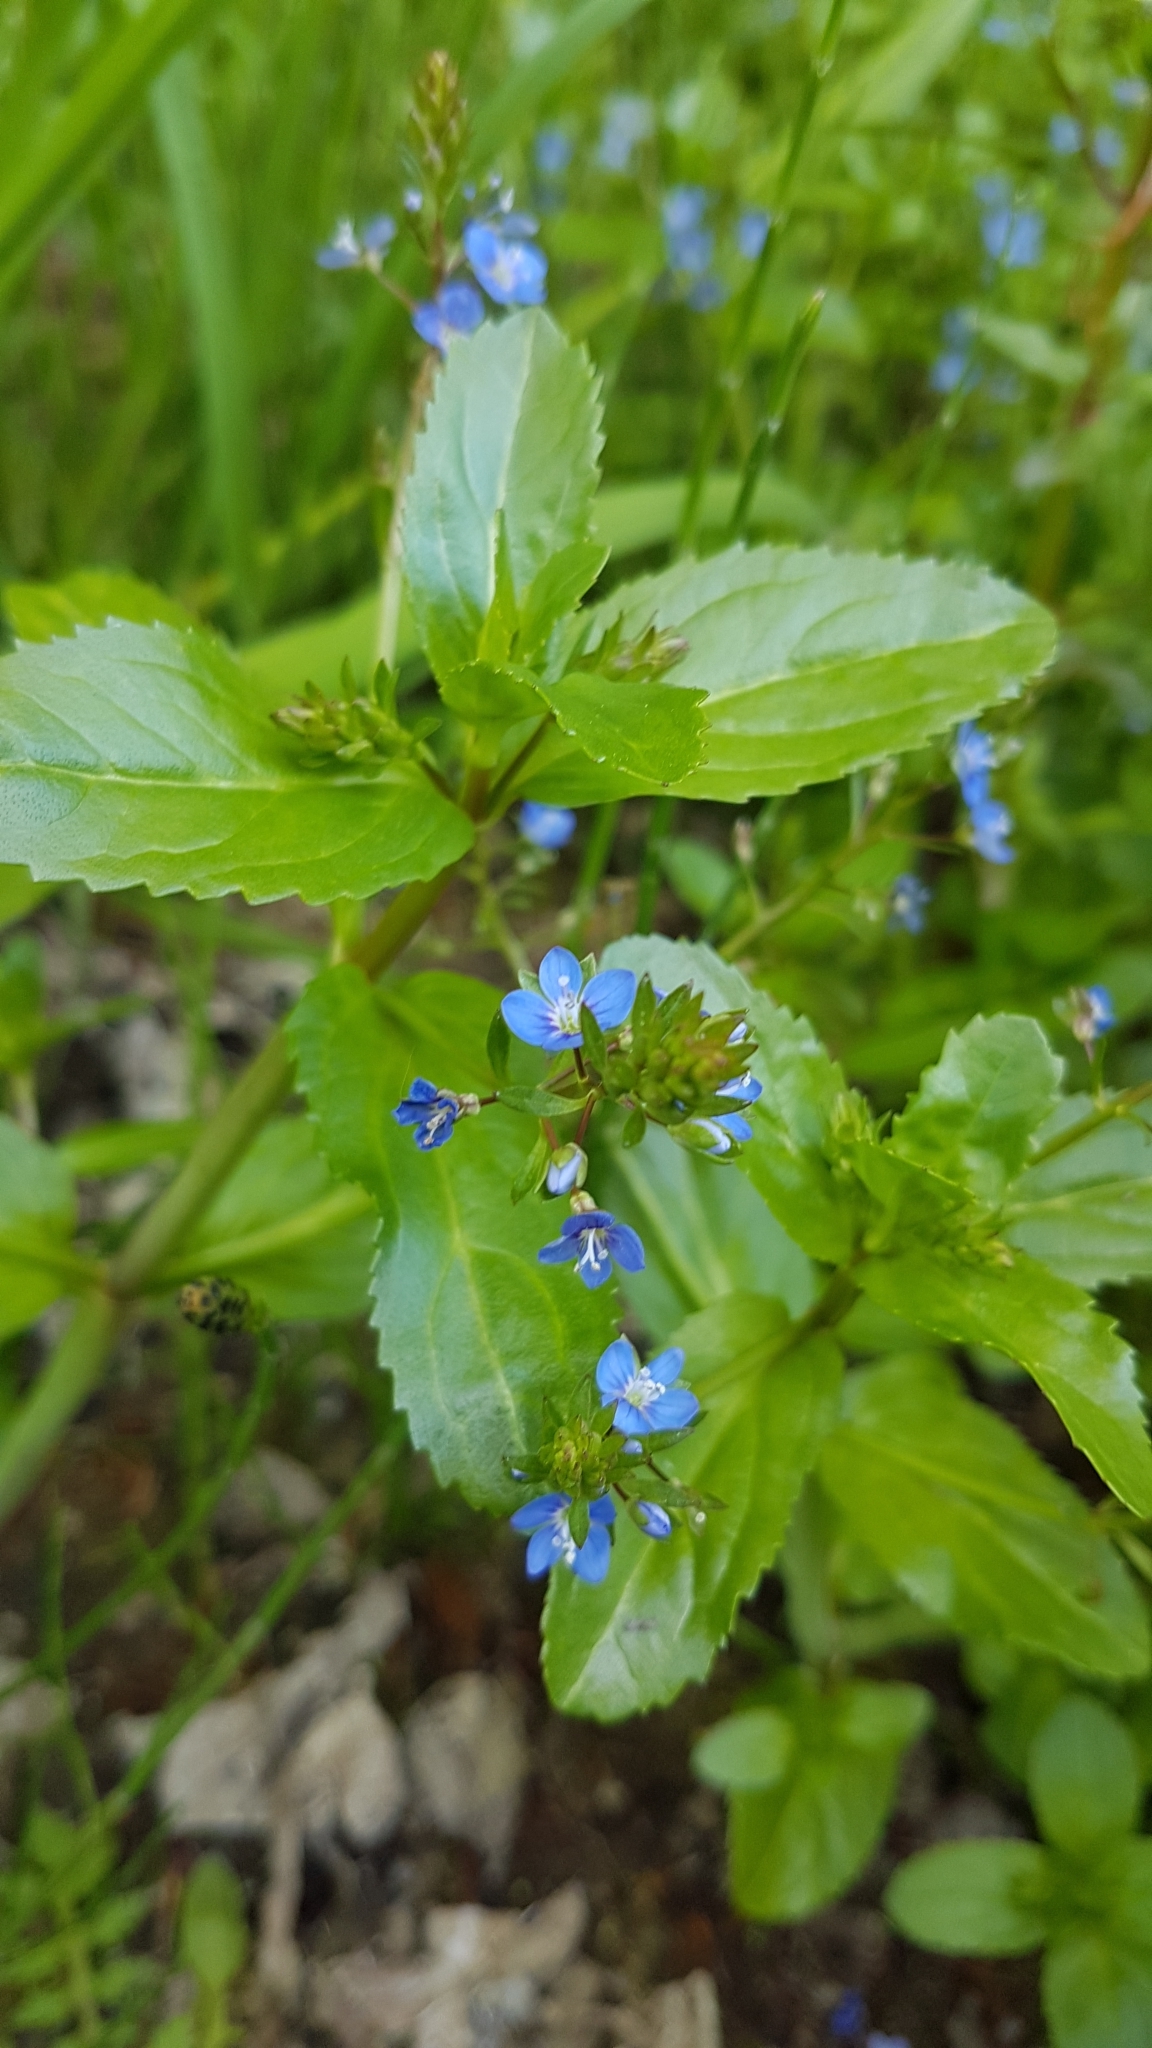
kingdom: Plantae
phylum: Tracheophyta
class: Magnoliopsida
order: Lamiales
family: Plantaginaceae
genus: Veronica
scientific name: Veronica beccabunga
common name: Brooklime
